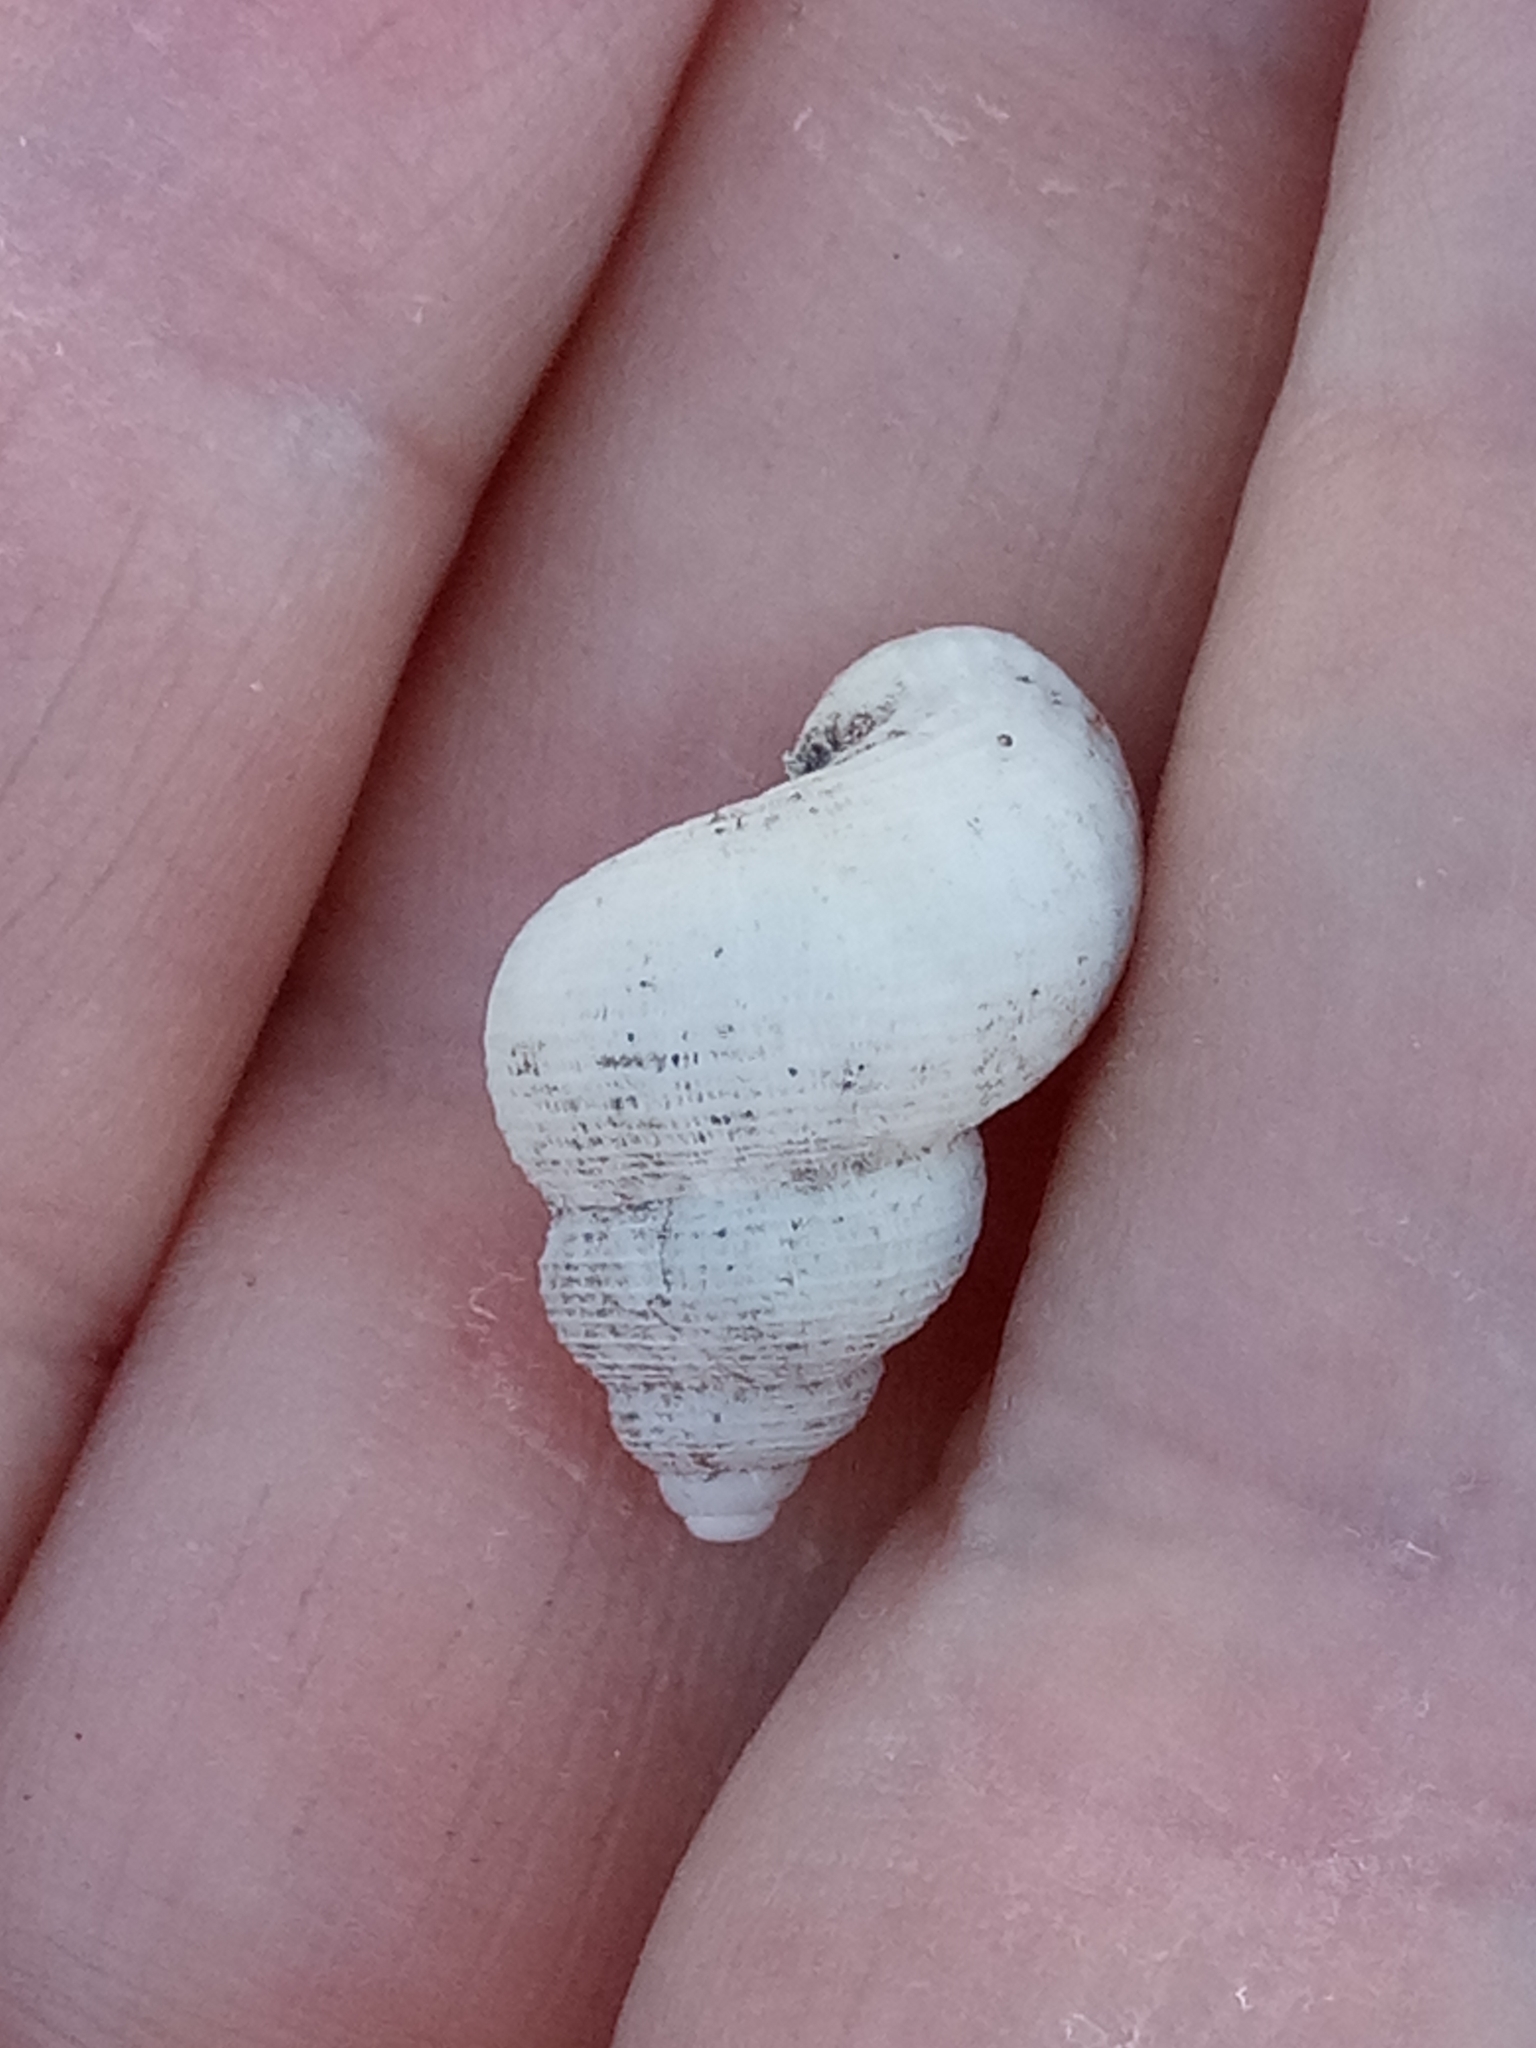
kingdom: Animalia
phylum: Mollusca
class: Gastropoda
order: Littorinimorpha
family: Pomatiidae
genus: Tudorella
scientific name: Tudorella sulcata
